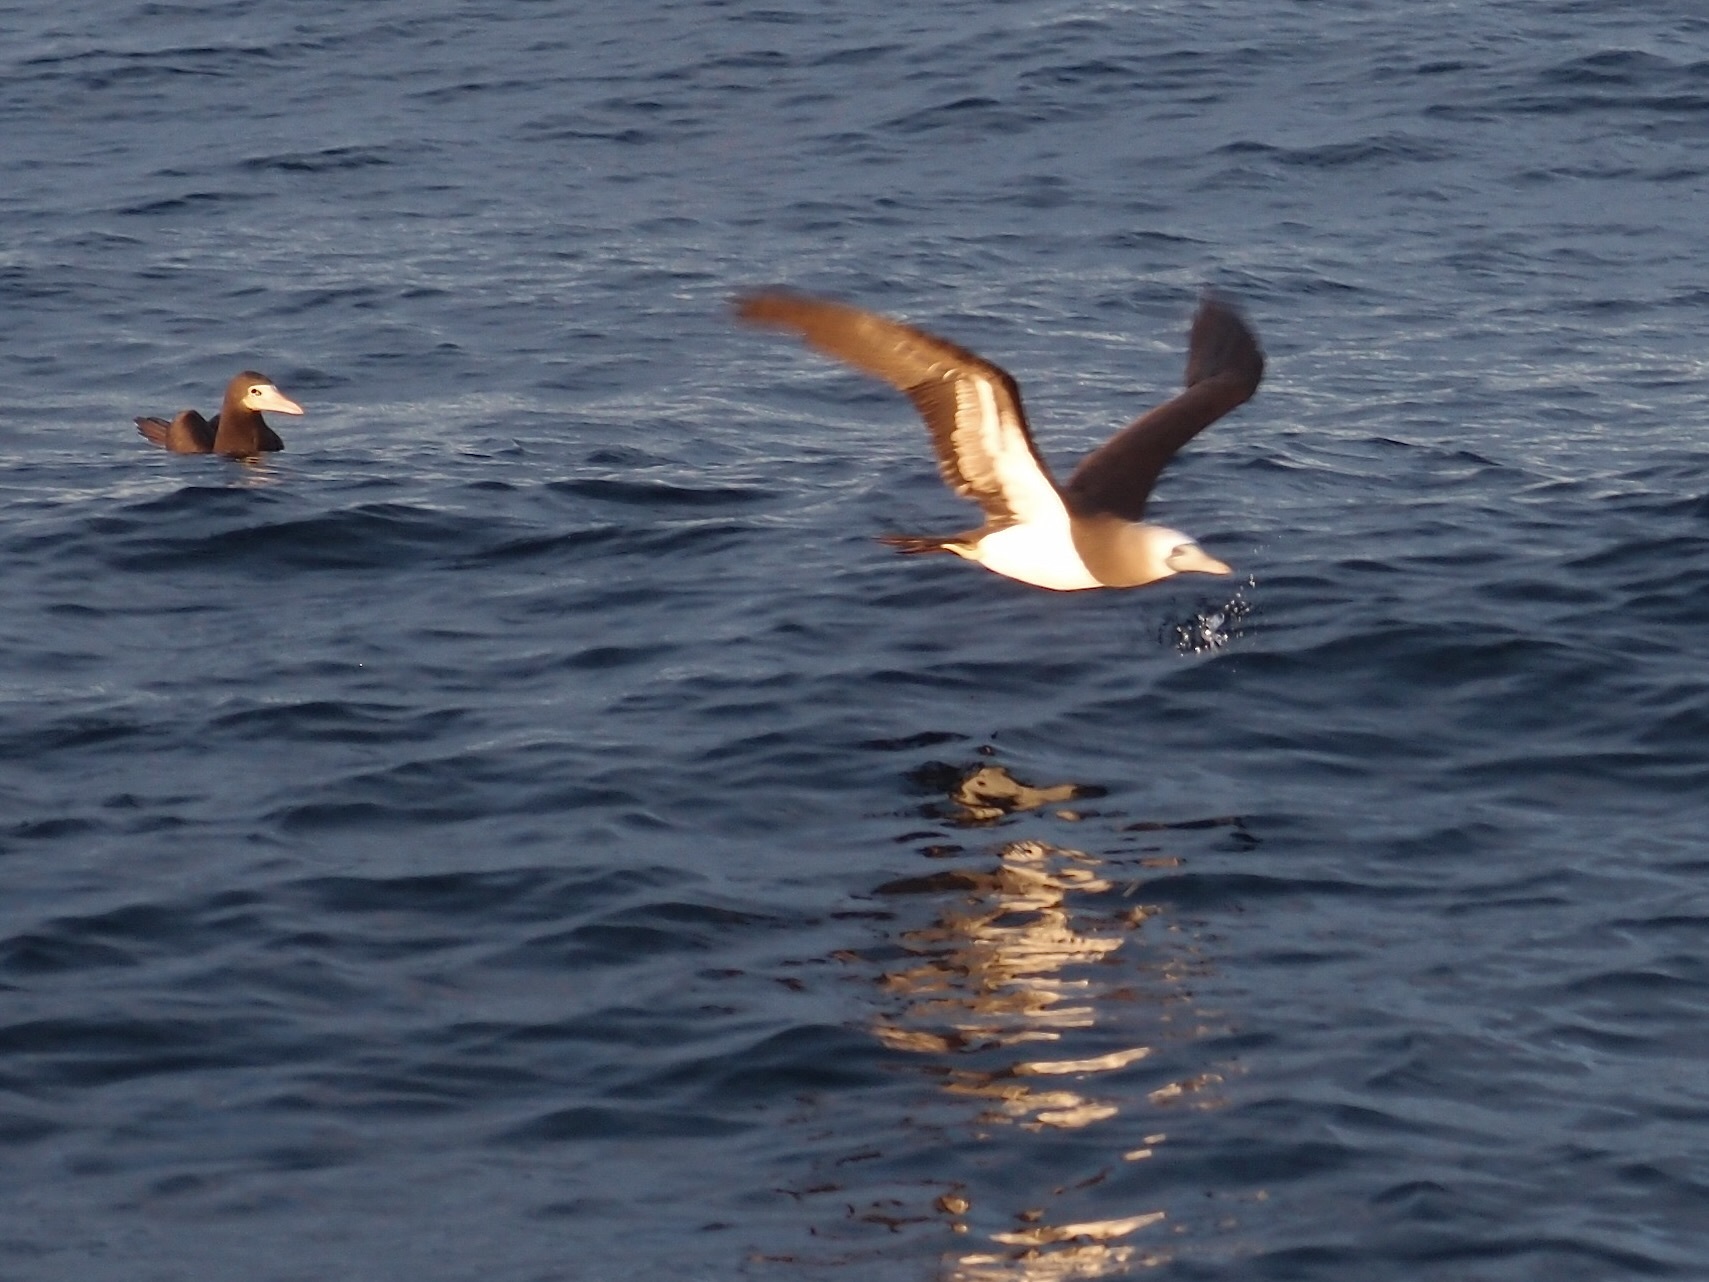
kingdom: Animalia
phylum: Chordata
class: Aves
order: Suliformes
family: Sulidae
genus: Sula
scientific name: Sula leucogaster
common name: Brown booby
